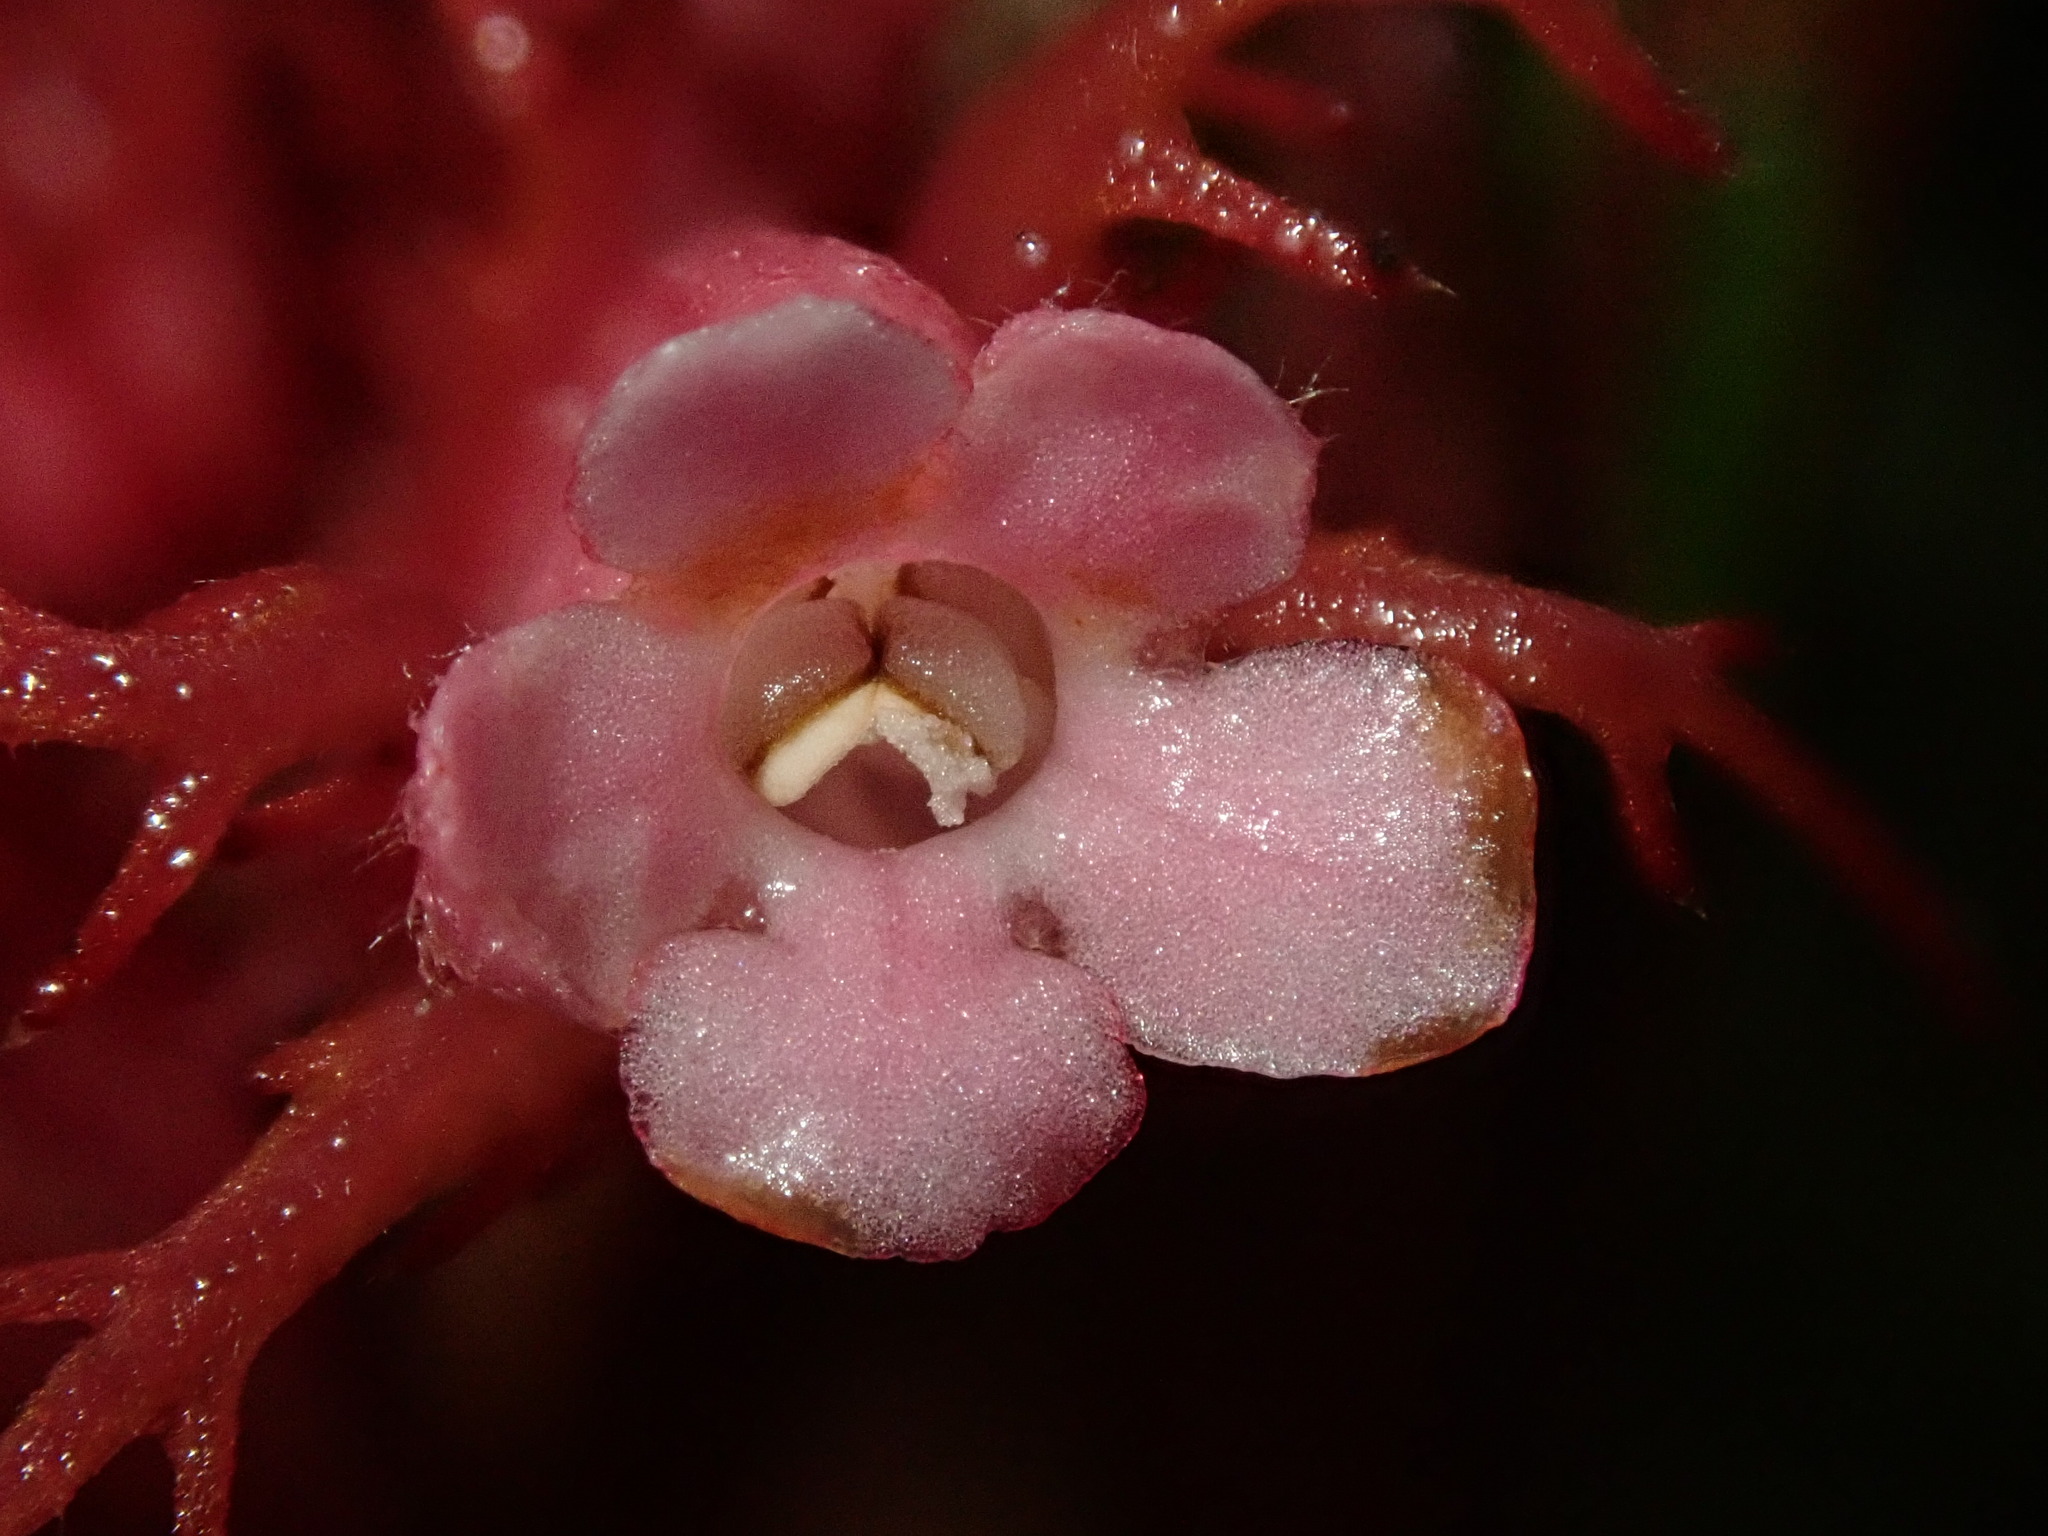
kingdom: Plantae
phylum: Tracheophyta
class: Magnoliopsida
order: Lamiales
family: Gesneriaceae
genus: Trichodrymonia
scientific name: Trichodrymonia metamorphophylla
